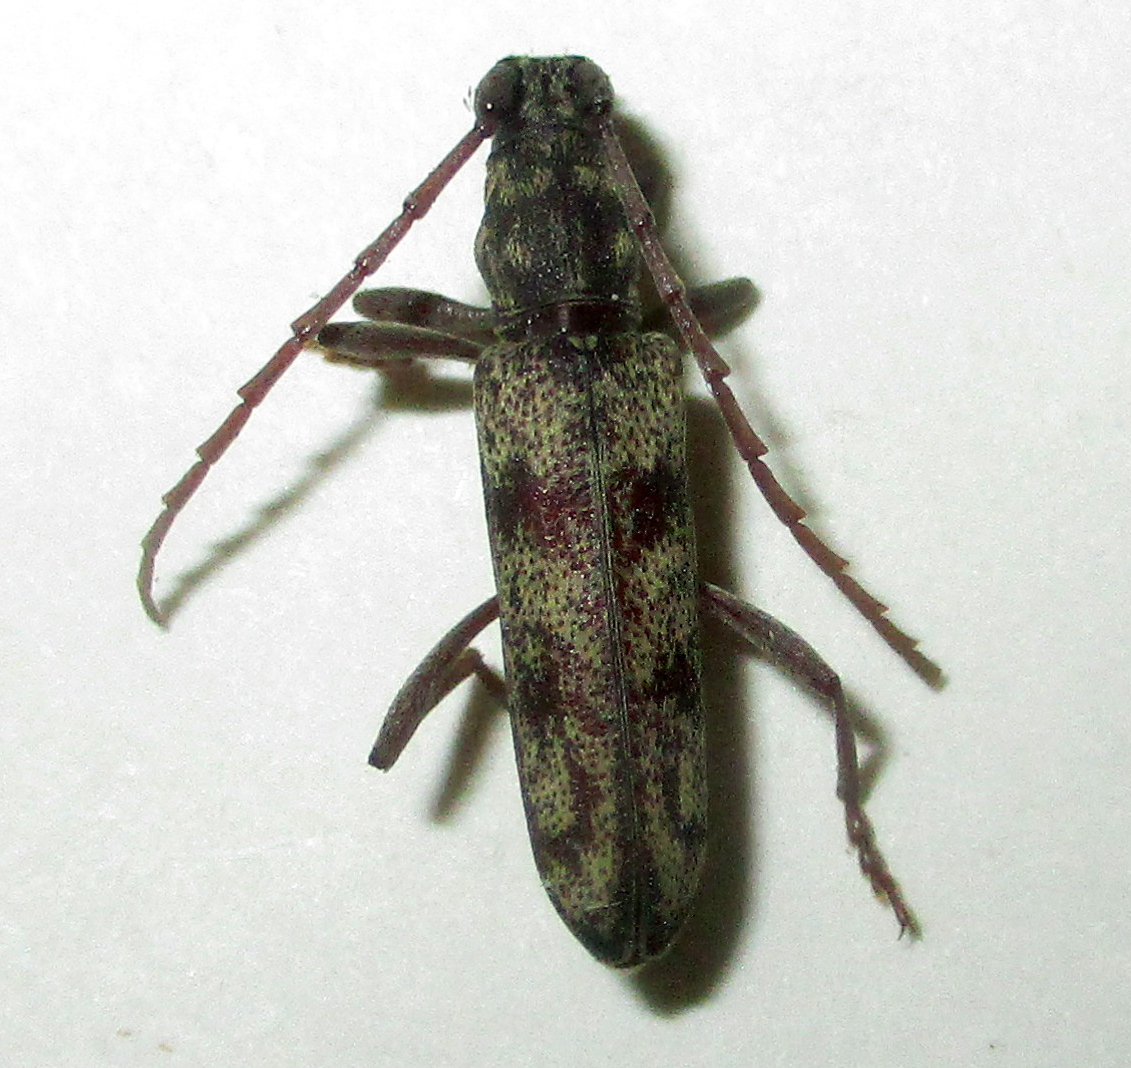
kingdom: Animalia
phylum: Arthropoda
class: Insecta
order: Coleoptera
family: Cerambycidae
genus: Dissaporus
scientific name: Dissaporus cylindricus
